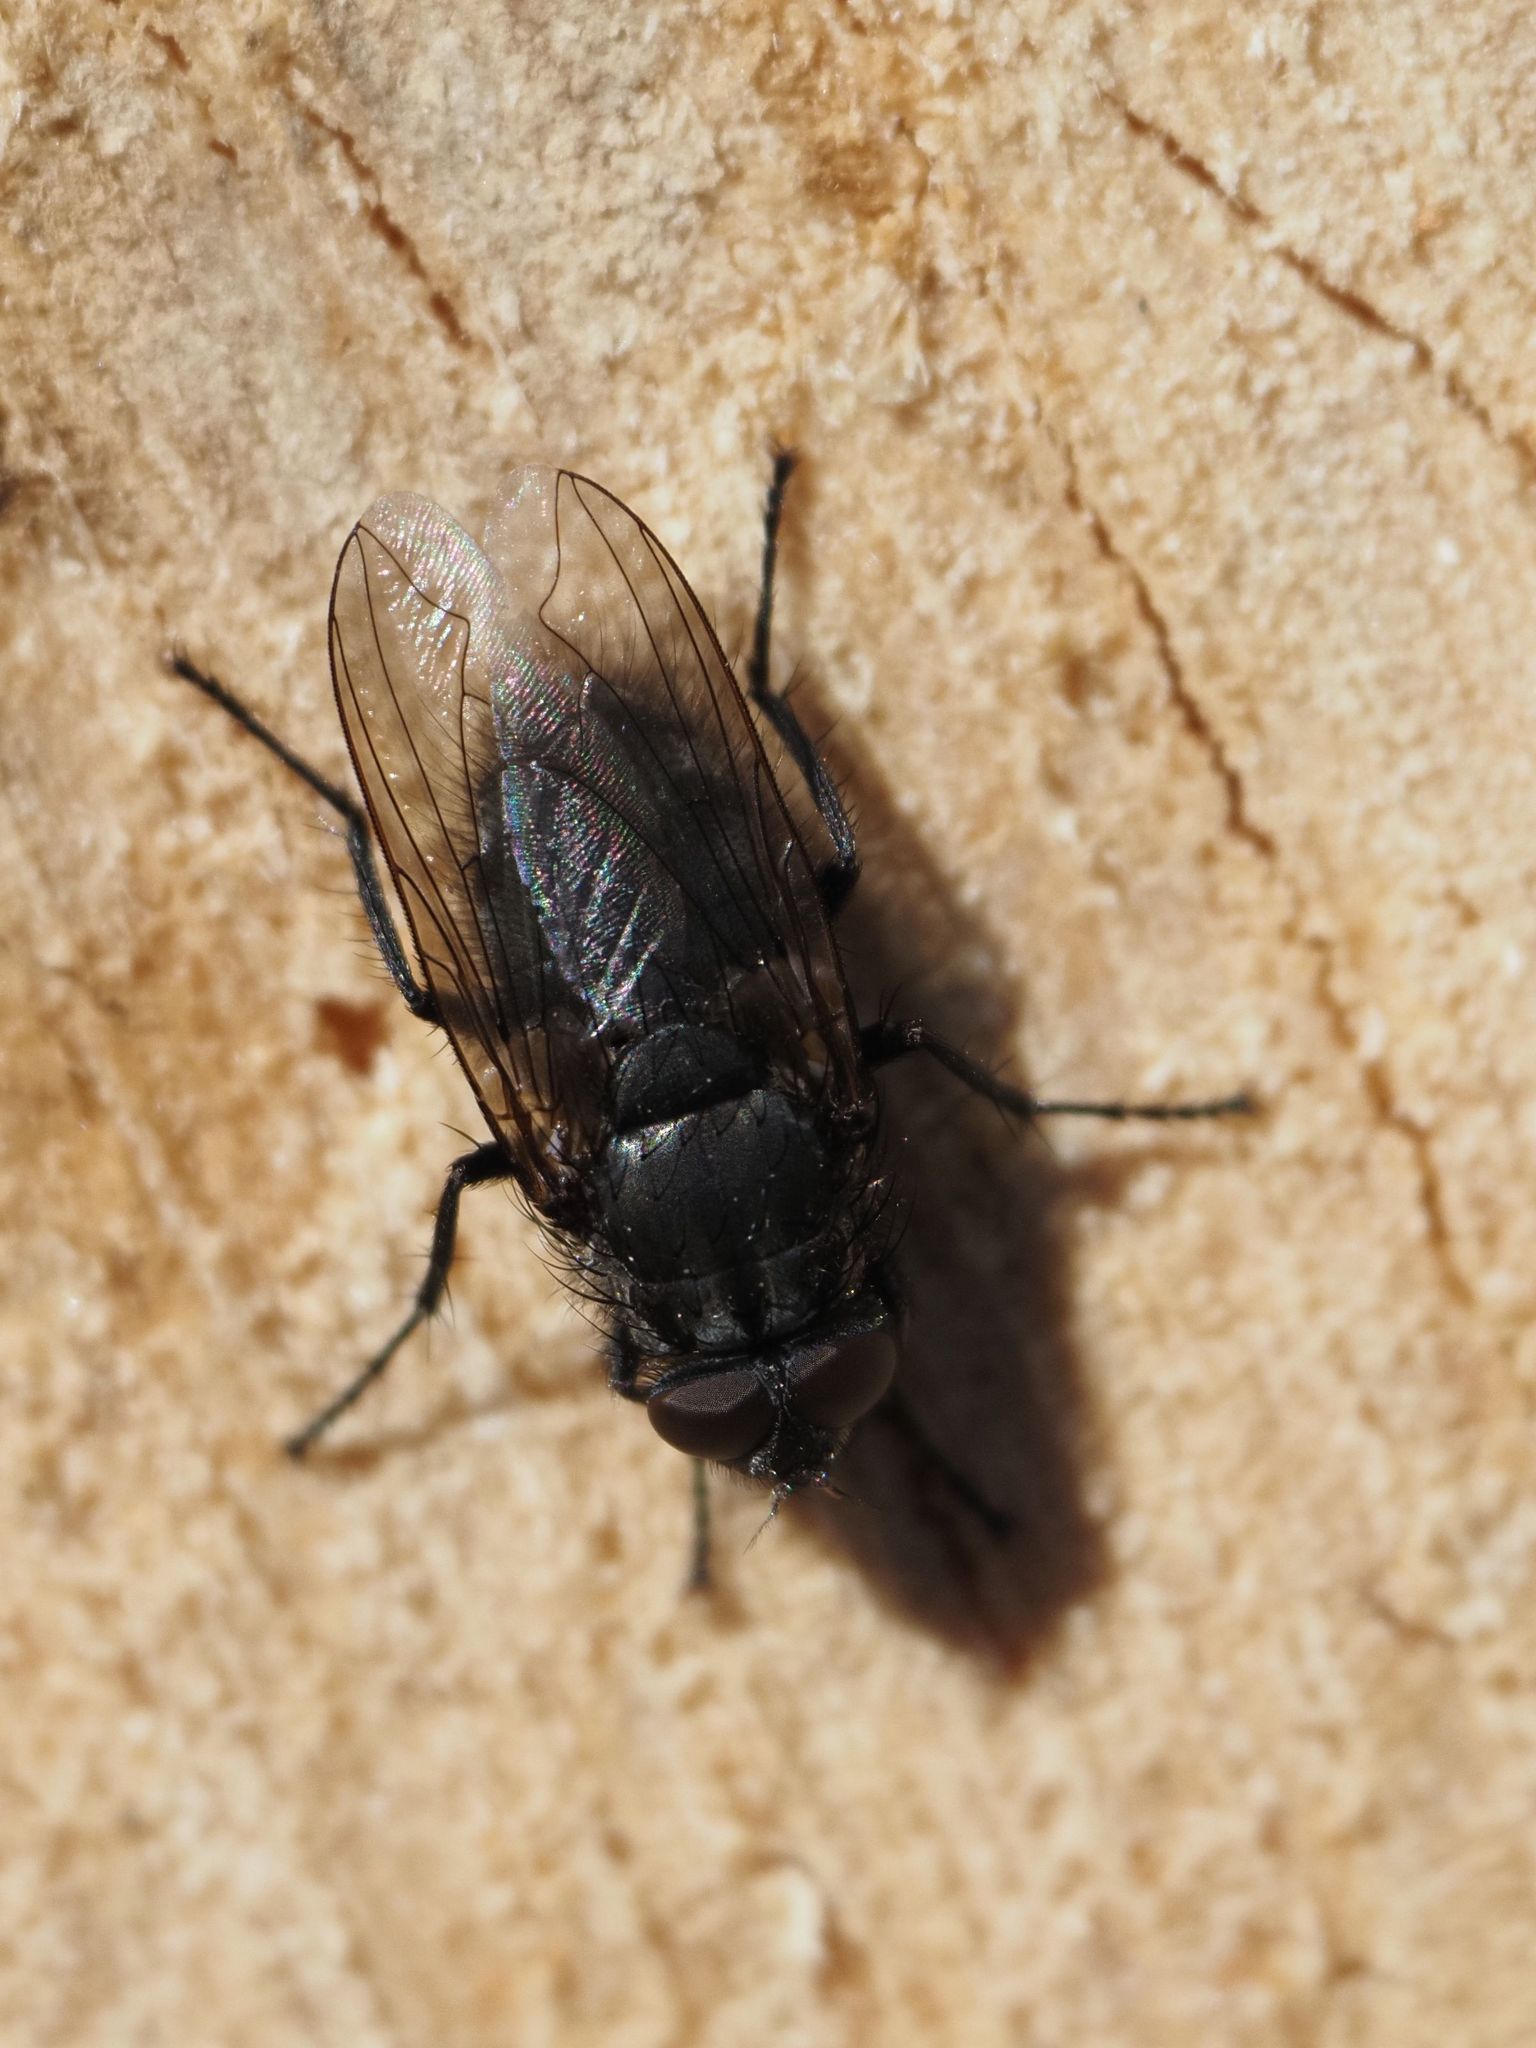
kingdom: Animalia
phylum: Arthropoda
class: Insecta
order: Diptera
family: Polleniidae
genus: Pollenia
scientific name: Pollenia vagabunda
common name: Vagabund cluster fly
